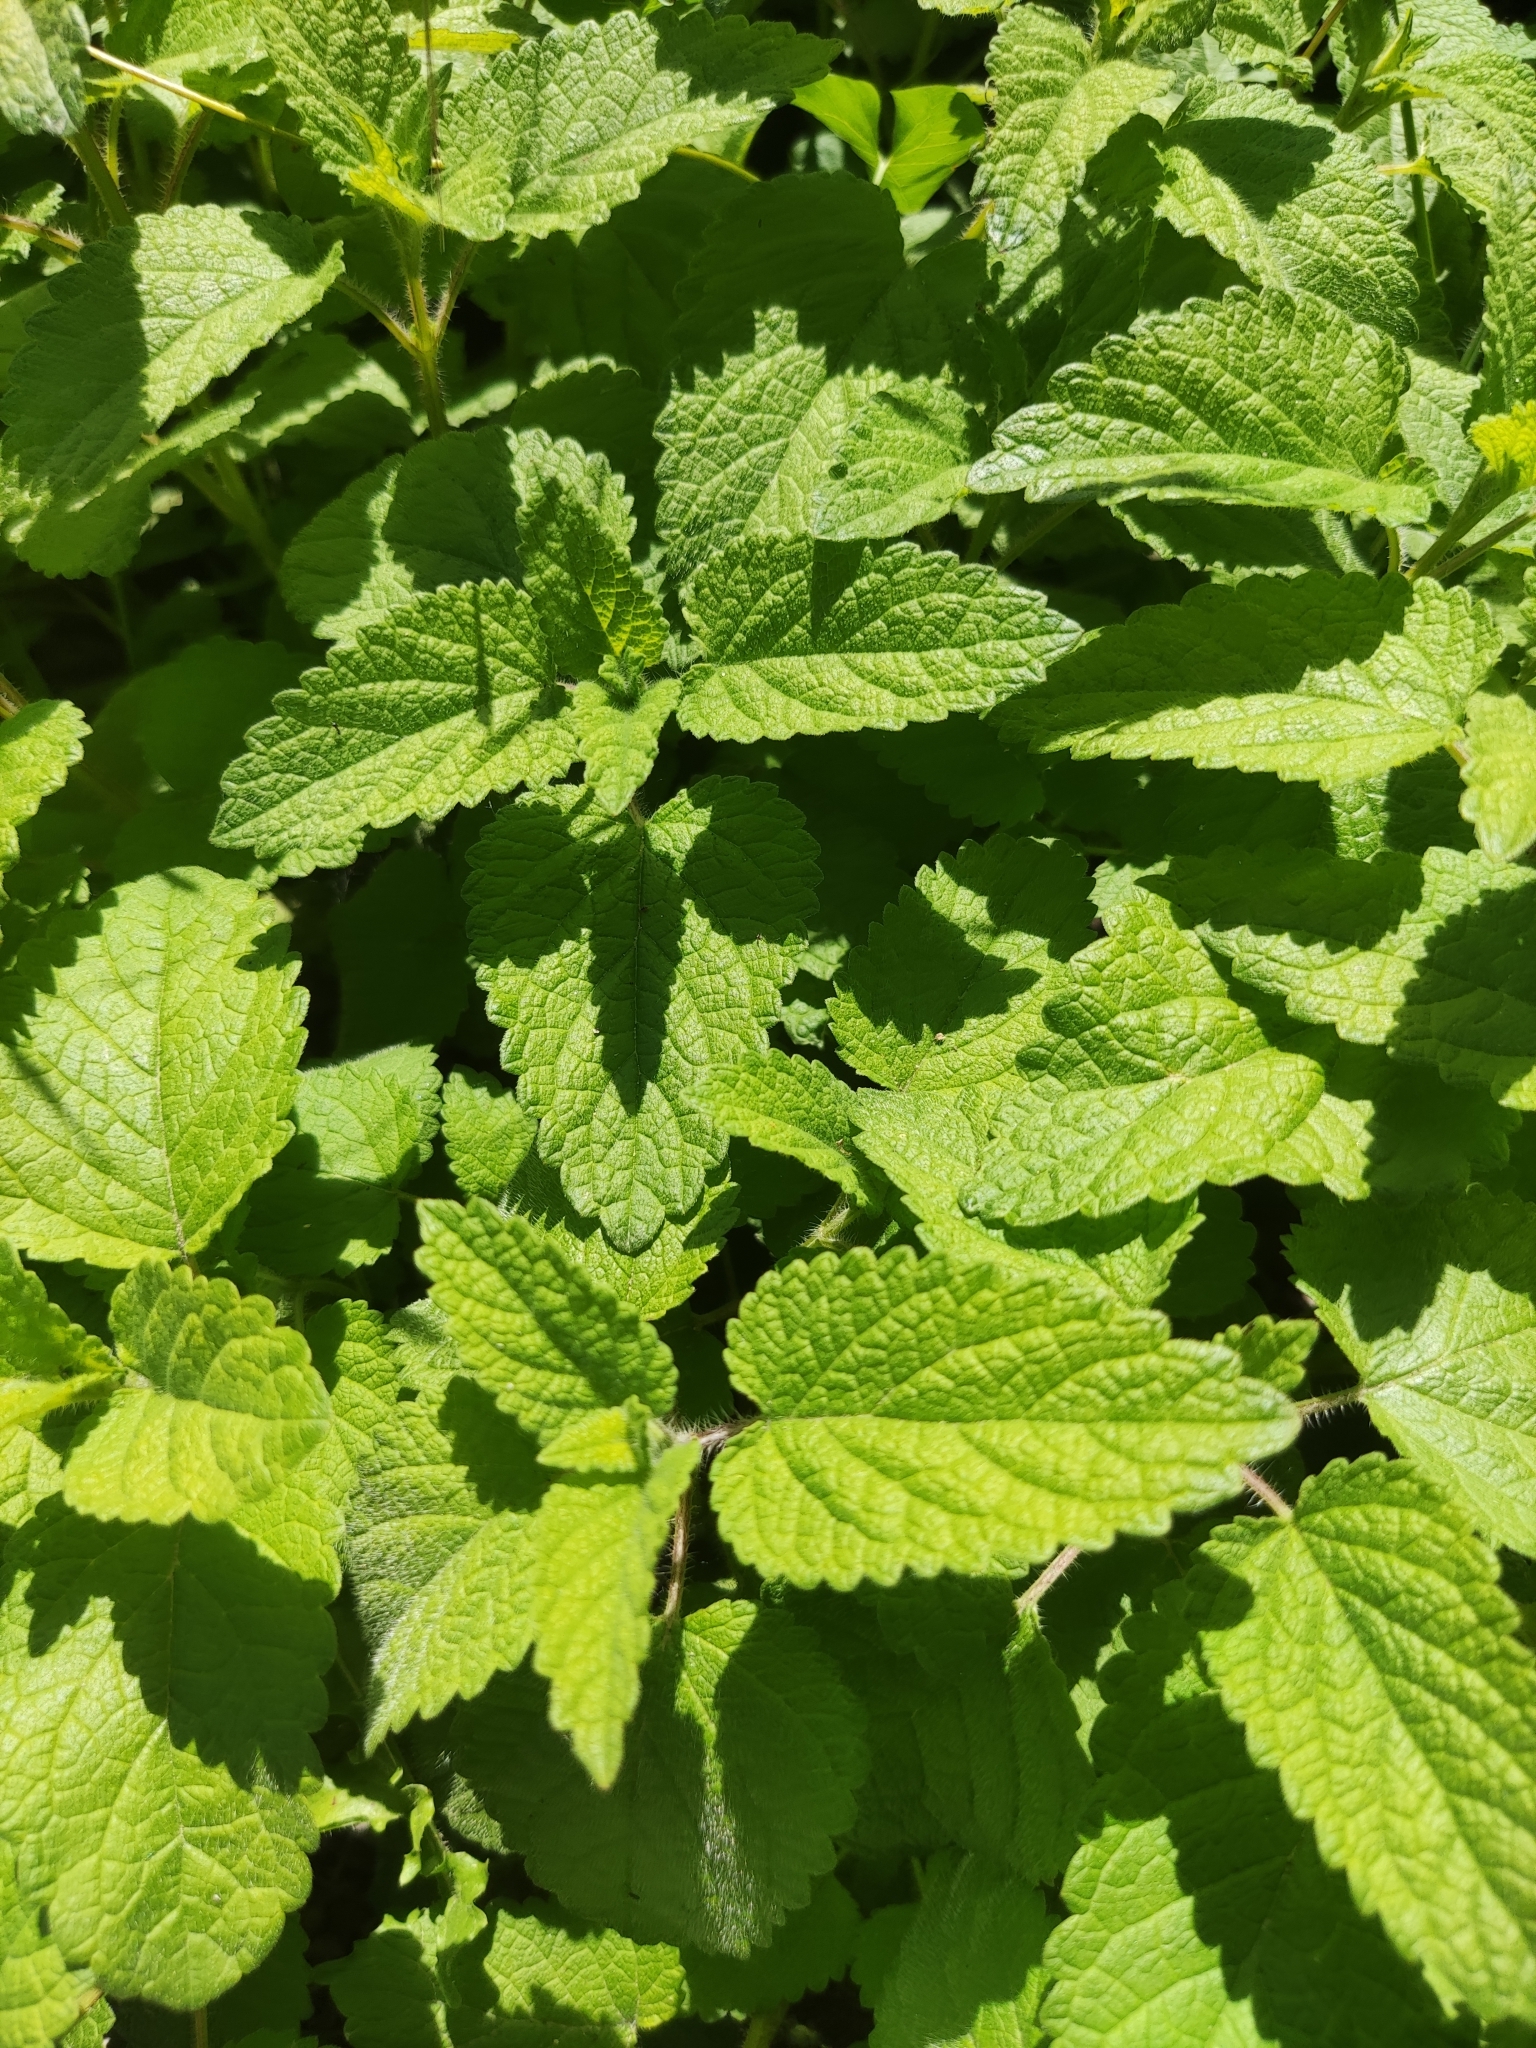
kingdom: Plantae
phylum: Tracheophyta
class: Magnoliopsida
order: Lamiales
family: Lamiaceae
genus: Melissa
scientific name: Melissa officinalis
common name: Balm
